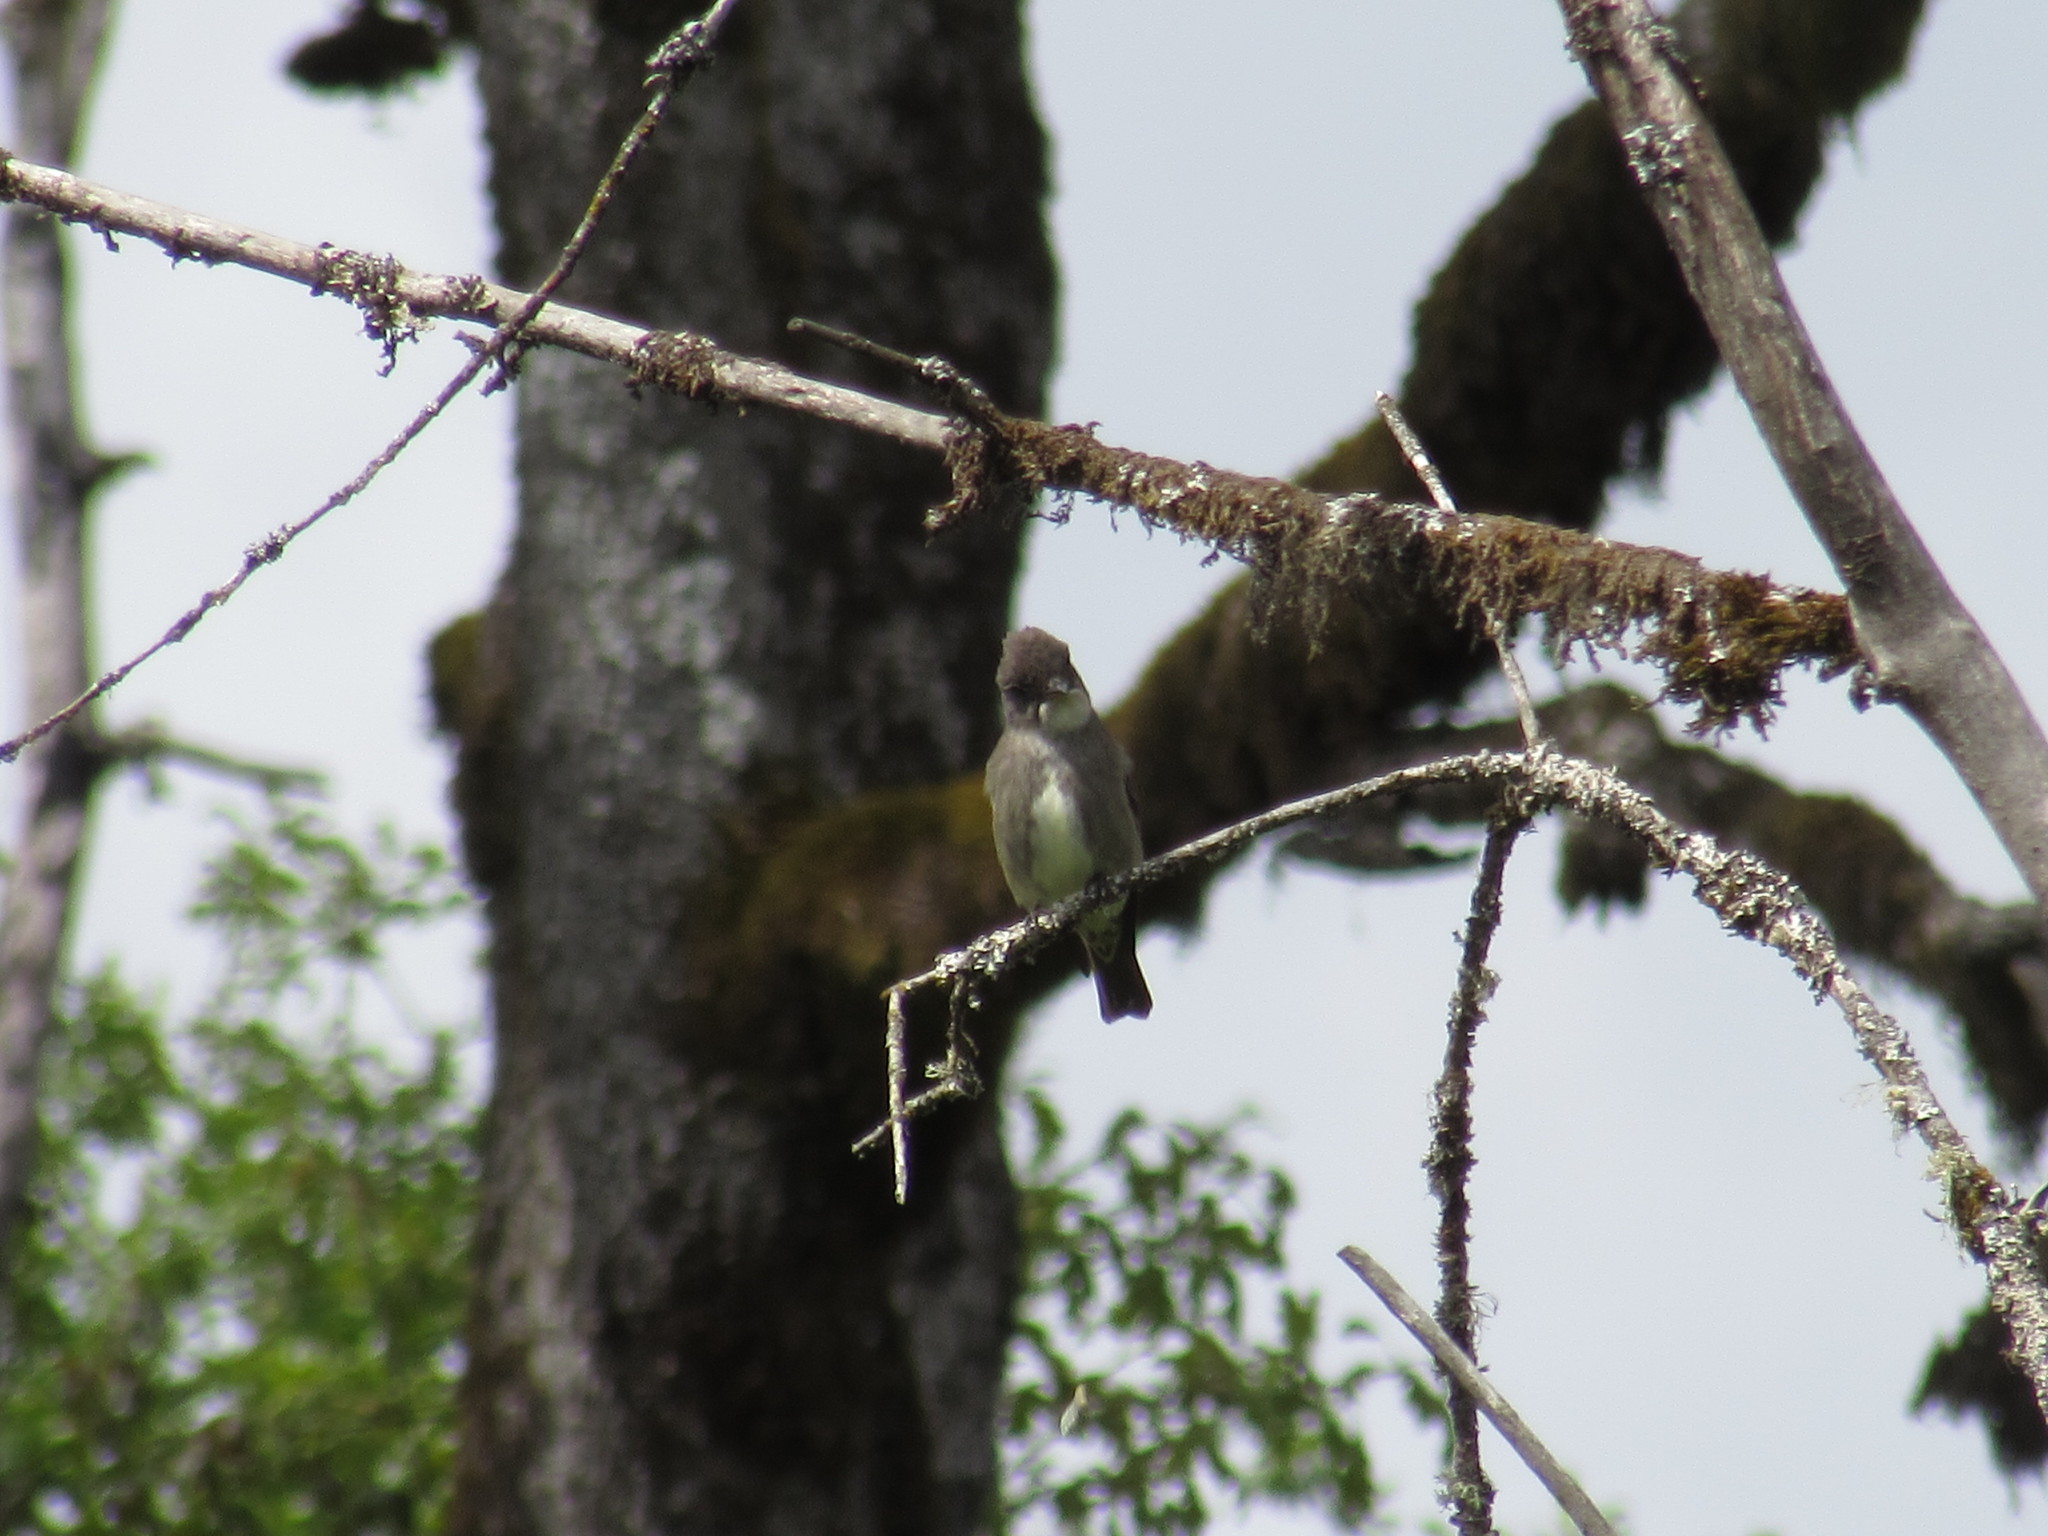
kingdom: Animalia
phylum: Chordata
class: Aves
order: Passeriformes
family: Tyrannidae
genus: Contopus
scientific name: Contopus cooperi
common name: Olive-sided flycatcher
